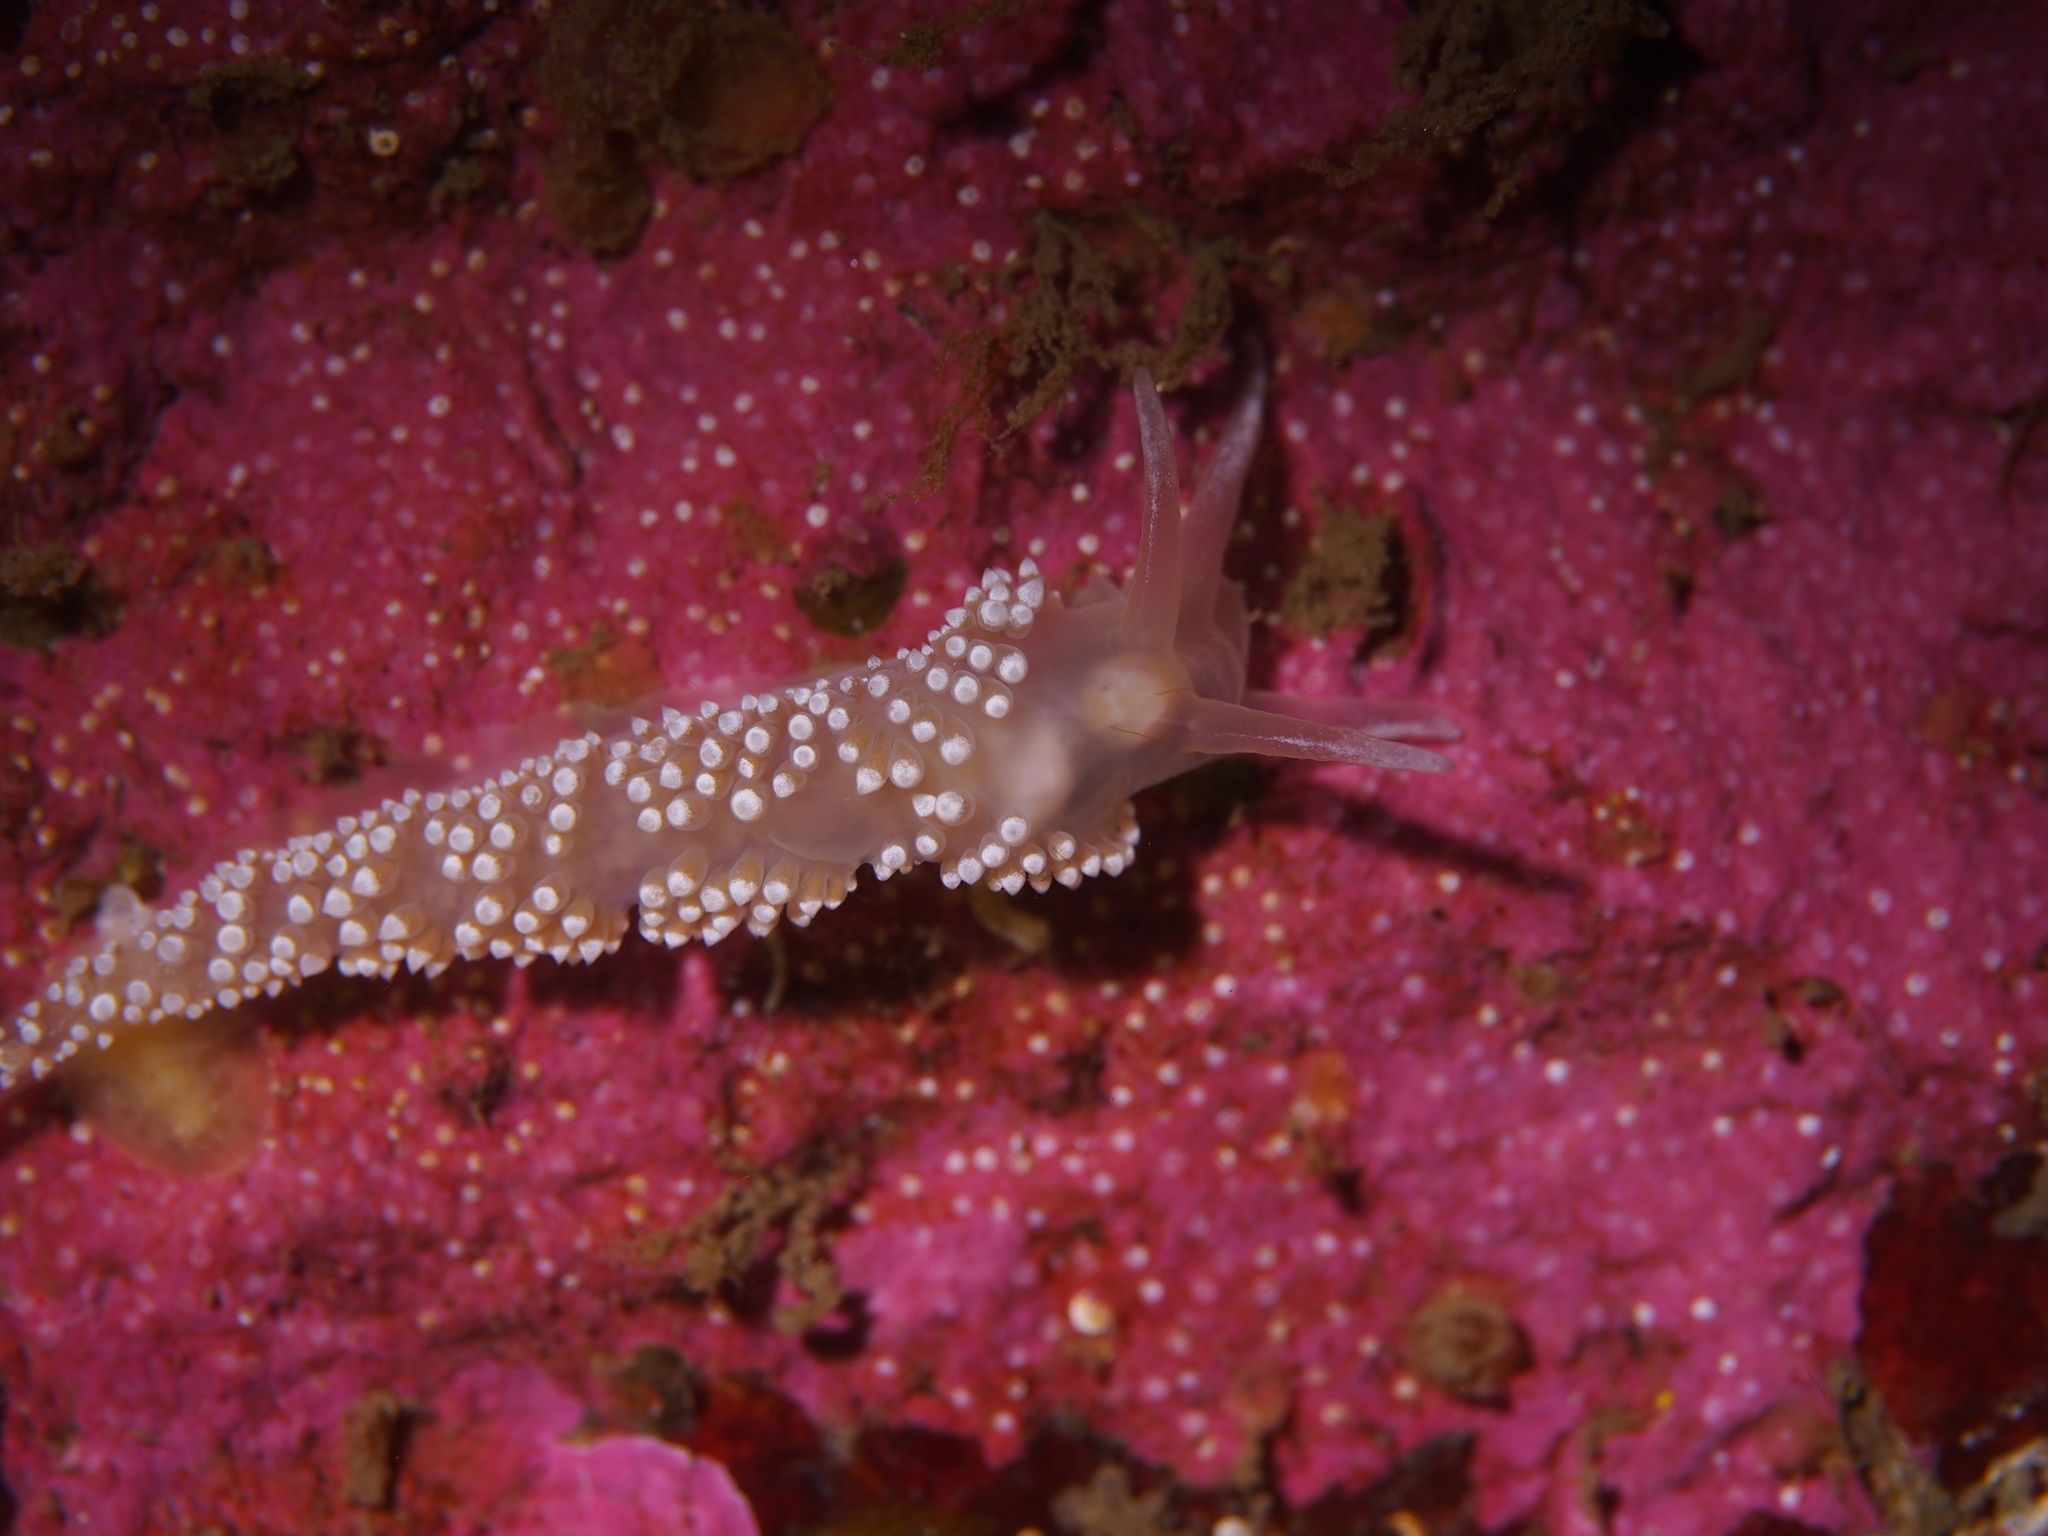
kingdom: Animalia
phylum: Mollusca
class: Gastropoda
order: Nudibranchia
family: Coryphellidae
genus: Coryphella
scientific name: Coryphella verrucosa
